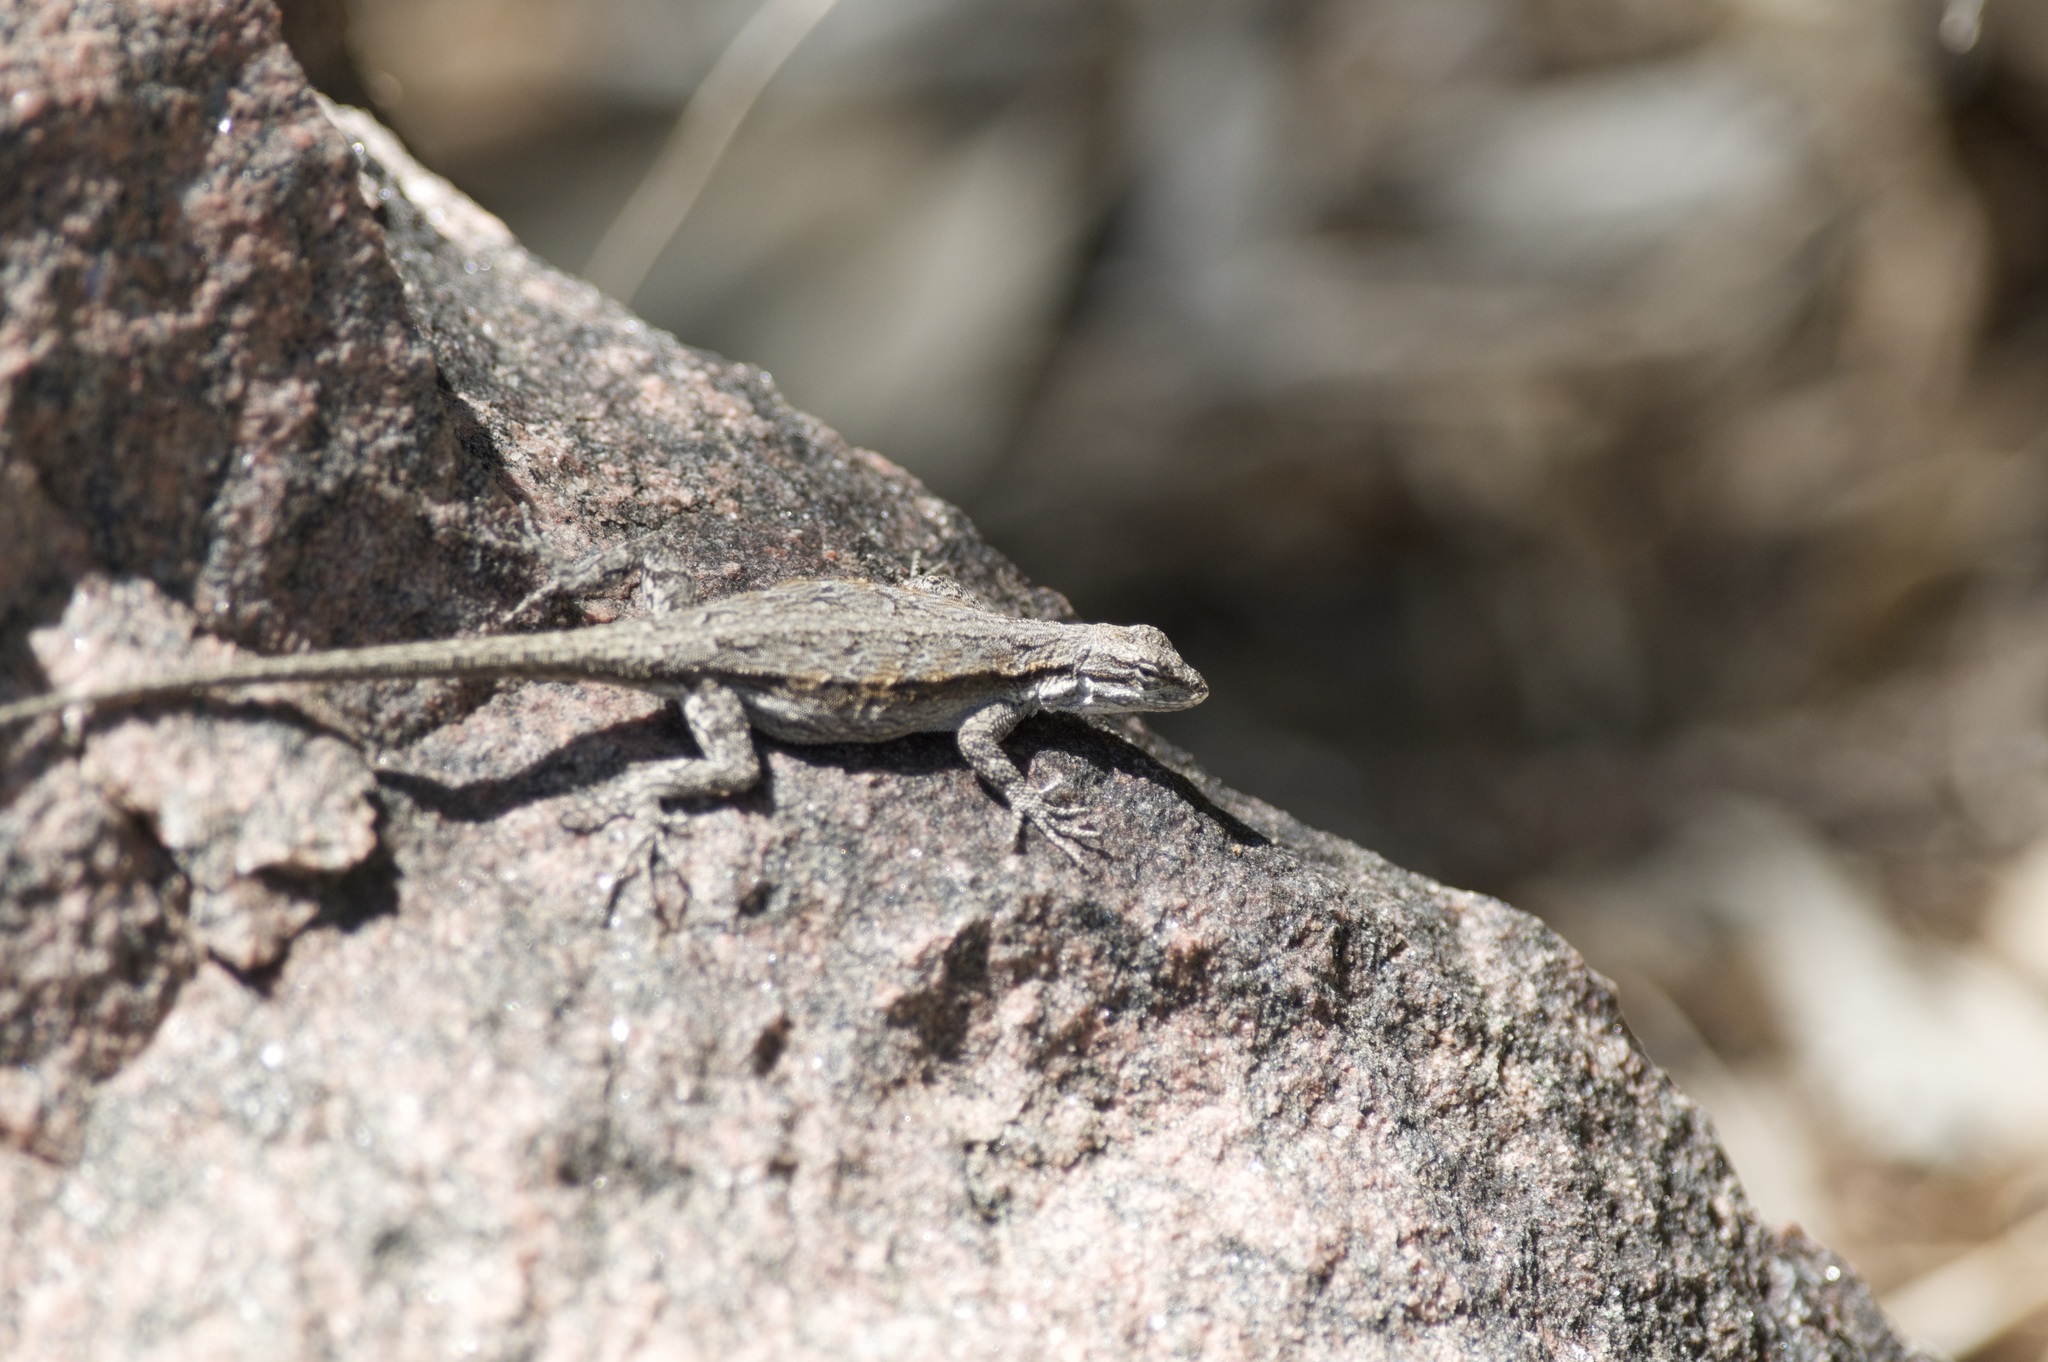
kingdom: Animalia
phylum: Chordata
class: Squamata
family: Phrynosomatidae
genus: Urosaurus
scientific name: Urosaurus ornatus
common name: Ornate tree lizard
